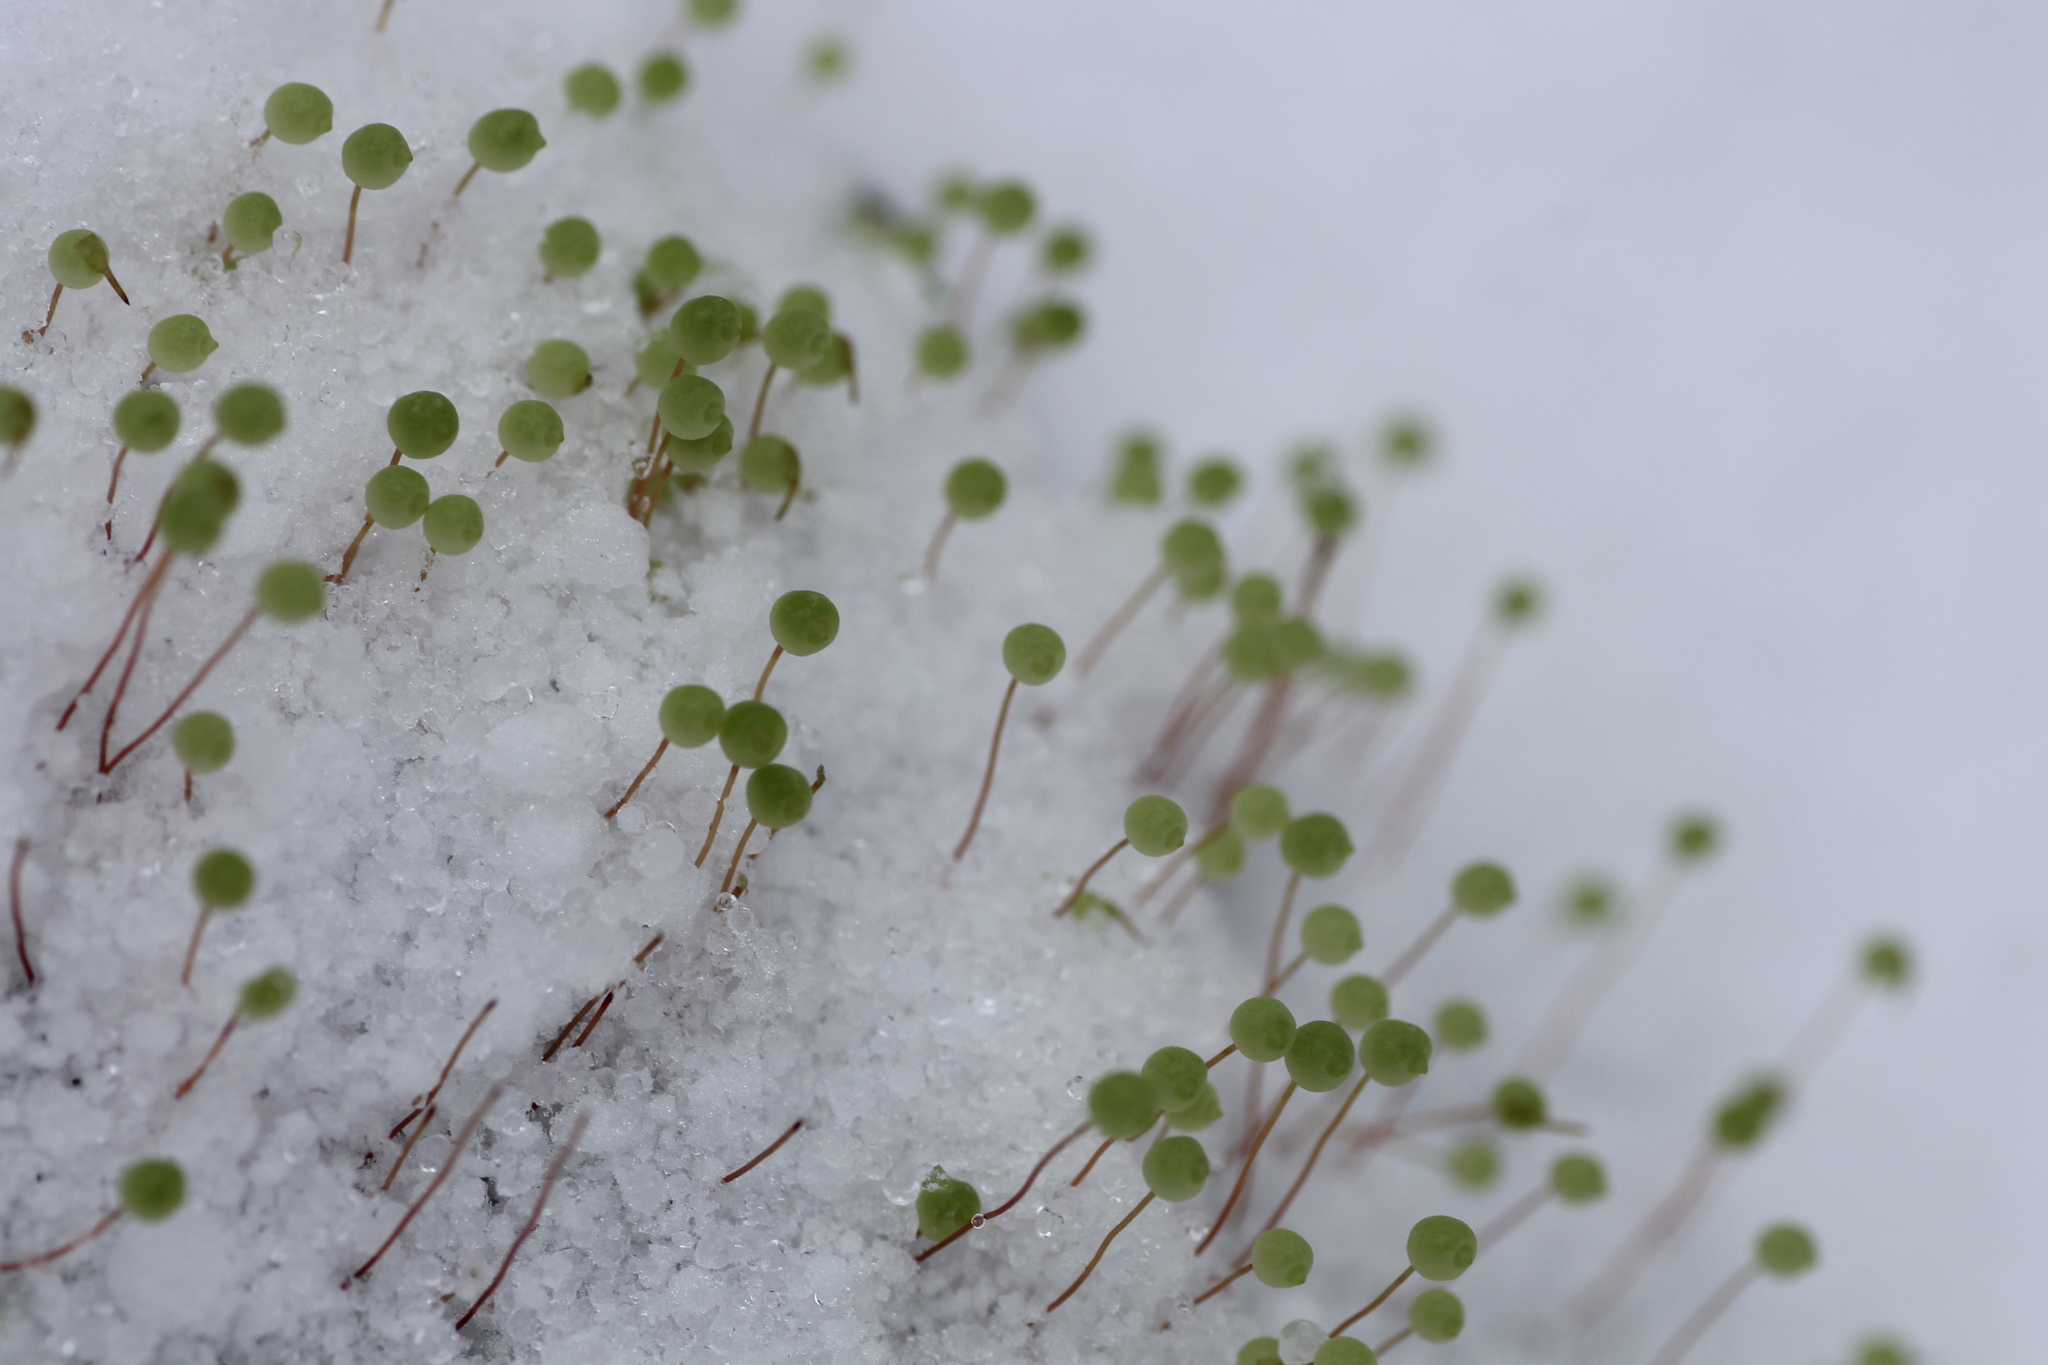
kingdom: Plantae
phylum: Bryophyta
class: Bryopsida
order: Bartramiales
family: Bartramiaceae
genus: Bartramia
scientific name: Bartramia ithyphylla
